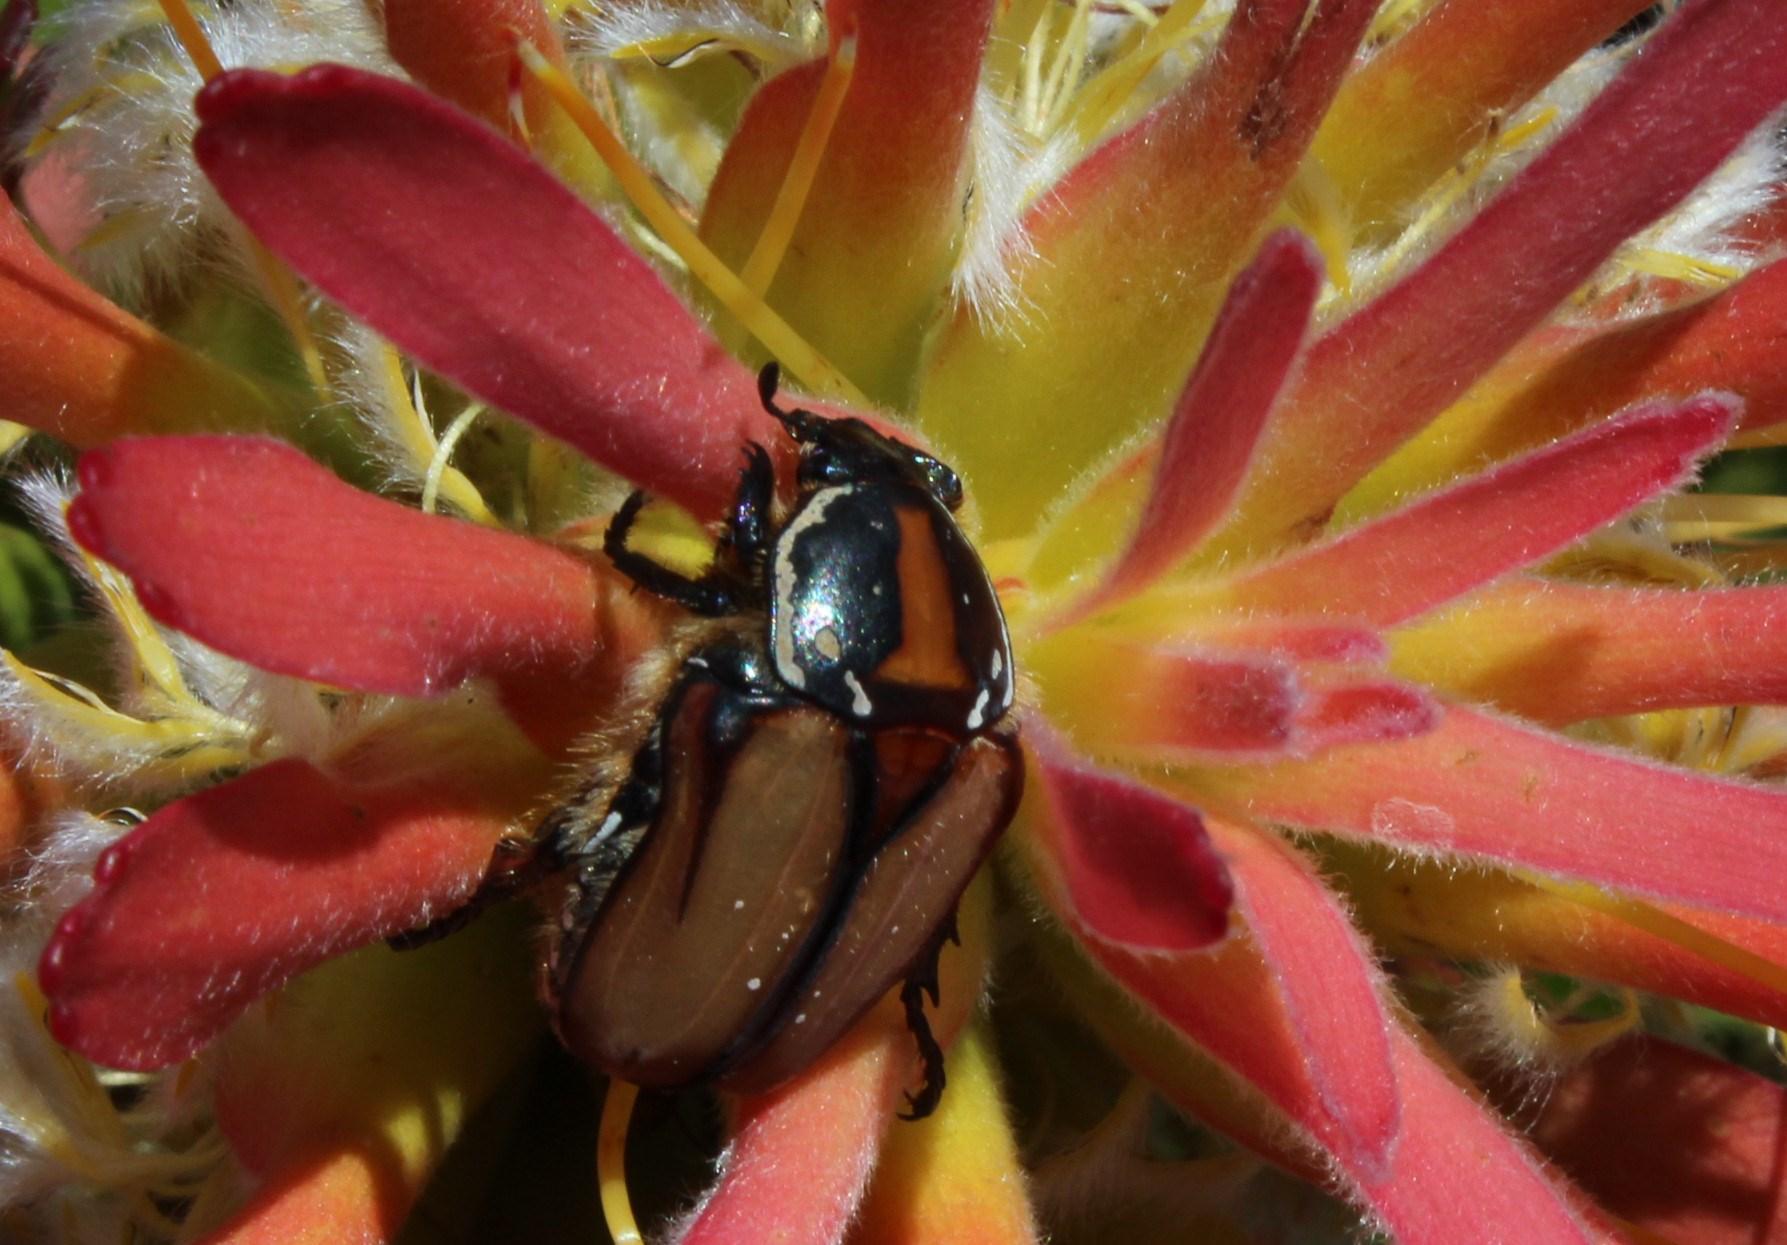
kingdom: Animalia
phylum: Arthropoda
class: Insecta
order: Coleoptera
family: Scarabaeidae
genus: Trichostetha
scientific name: Trichostetha signata
